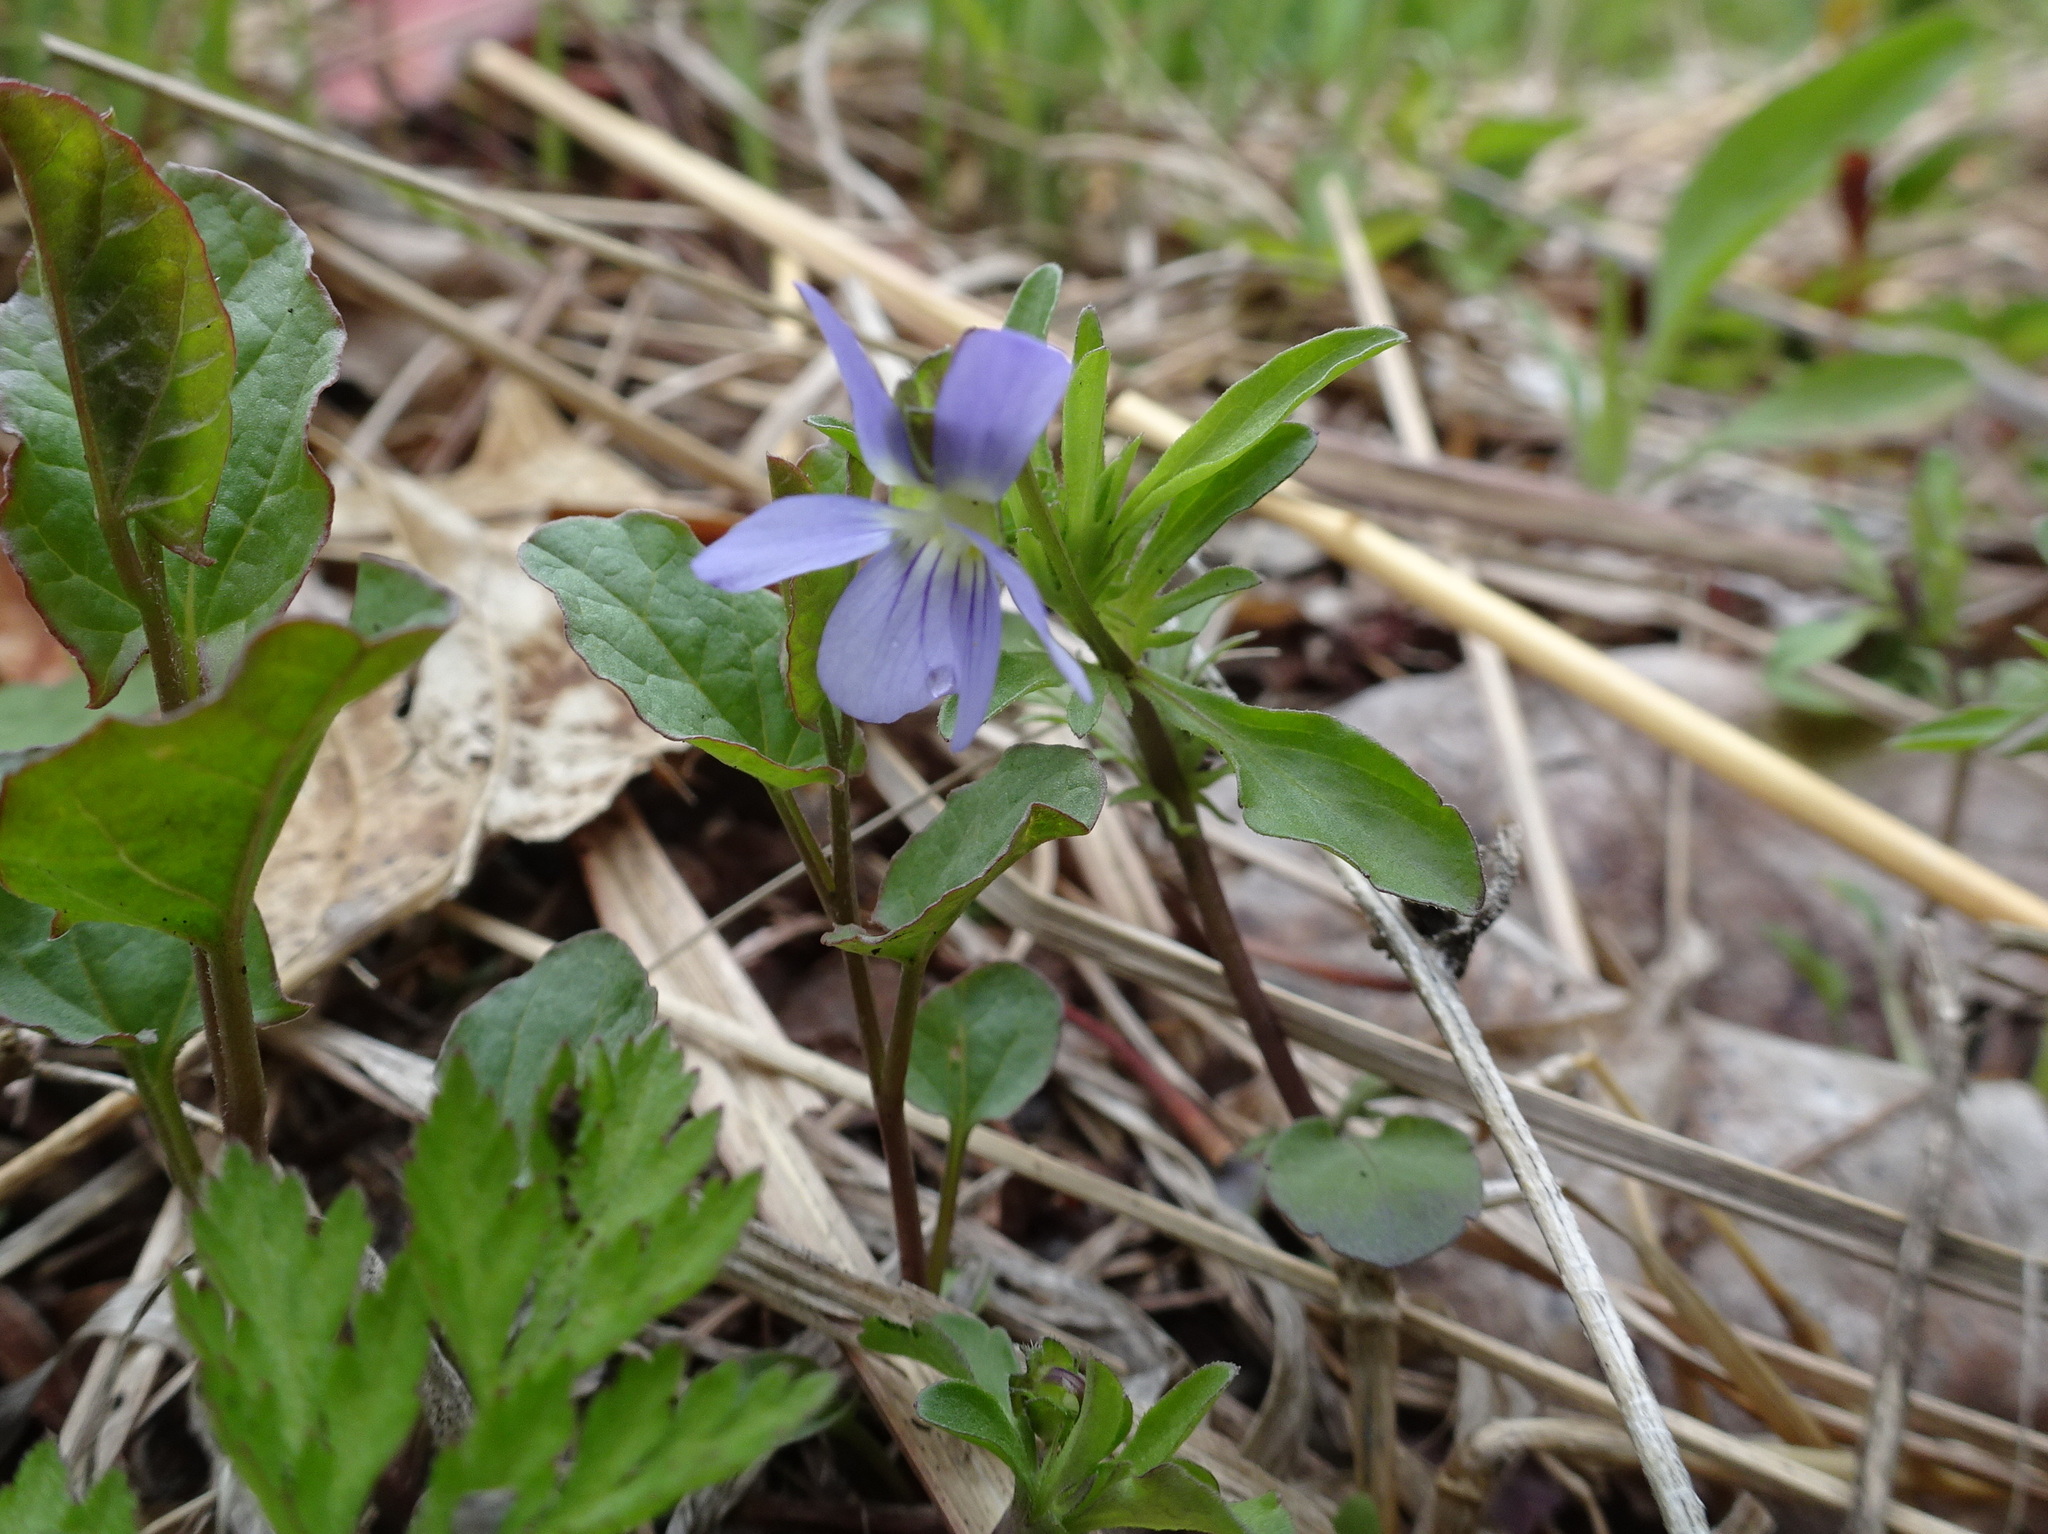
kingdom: Plantae
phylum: Tracheophyta
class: Magnoliopsida
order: Malpighiales
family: Violaceae
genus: Viola
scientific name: Viola rafinesquei
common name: American field pansy
